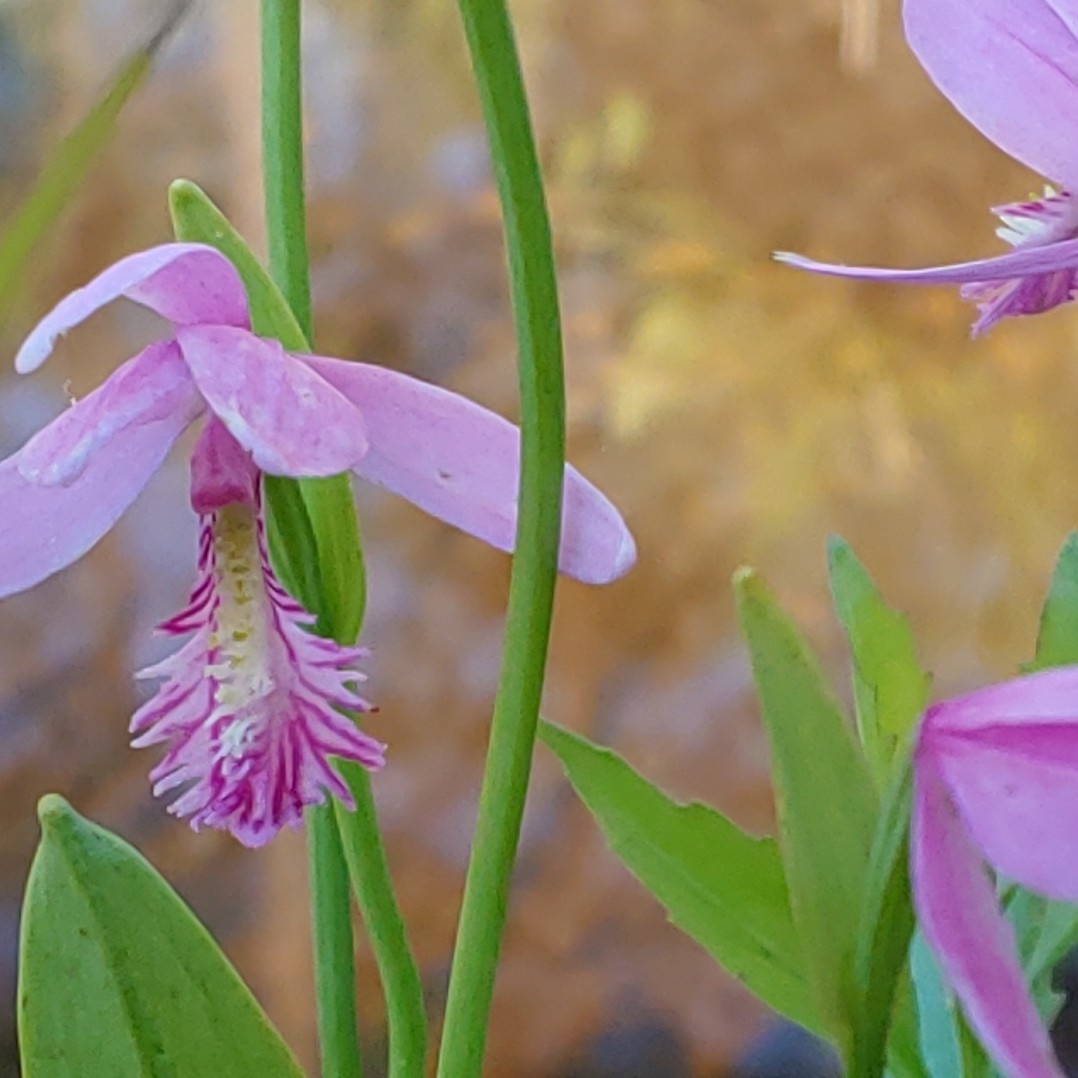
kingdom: Plantae
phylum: Tracheophyta
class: Liliopsida
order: Asparagales
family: Orchidaceae
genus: Pogonia
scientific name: Pogonia ophioglossoides
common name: Rose pogonia
